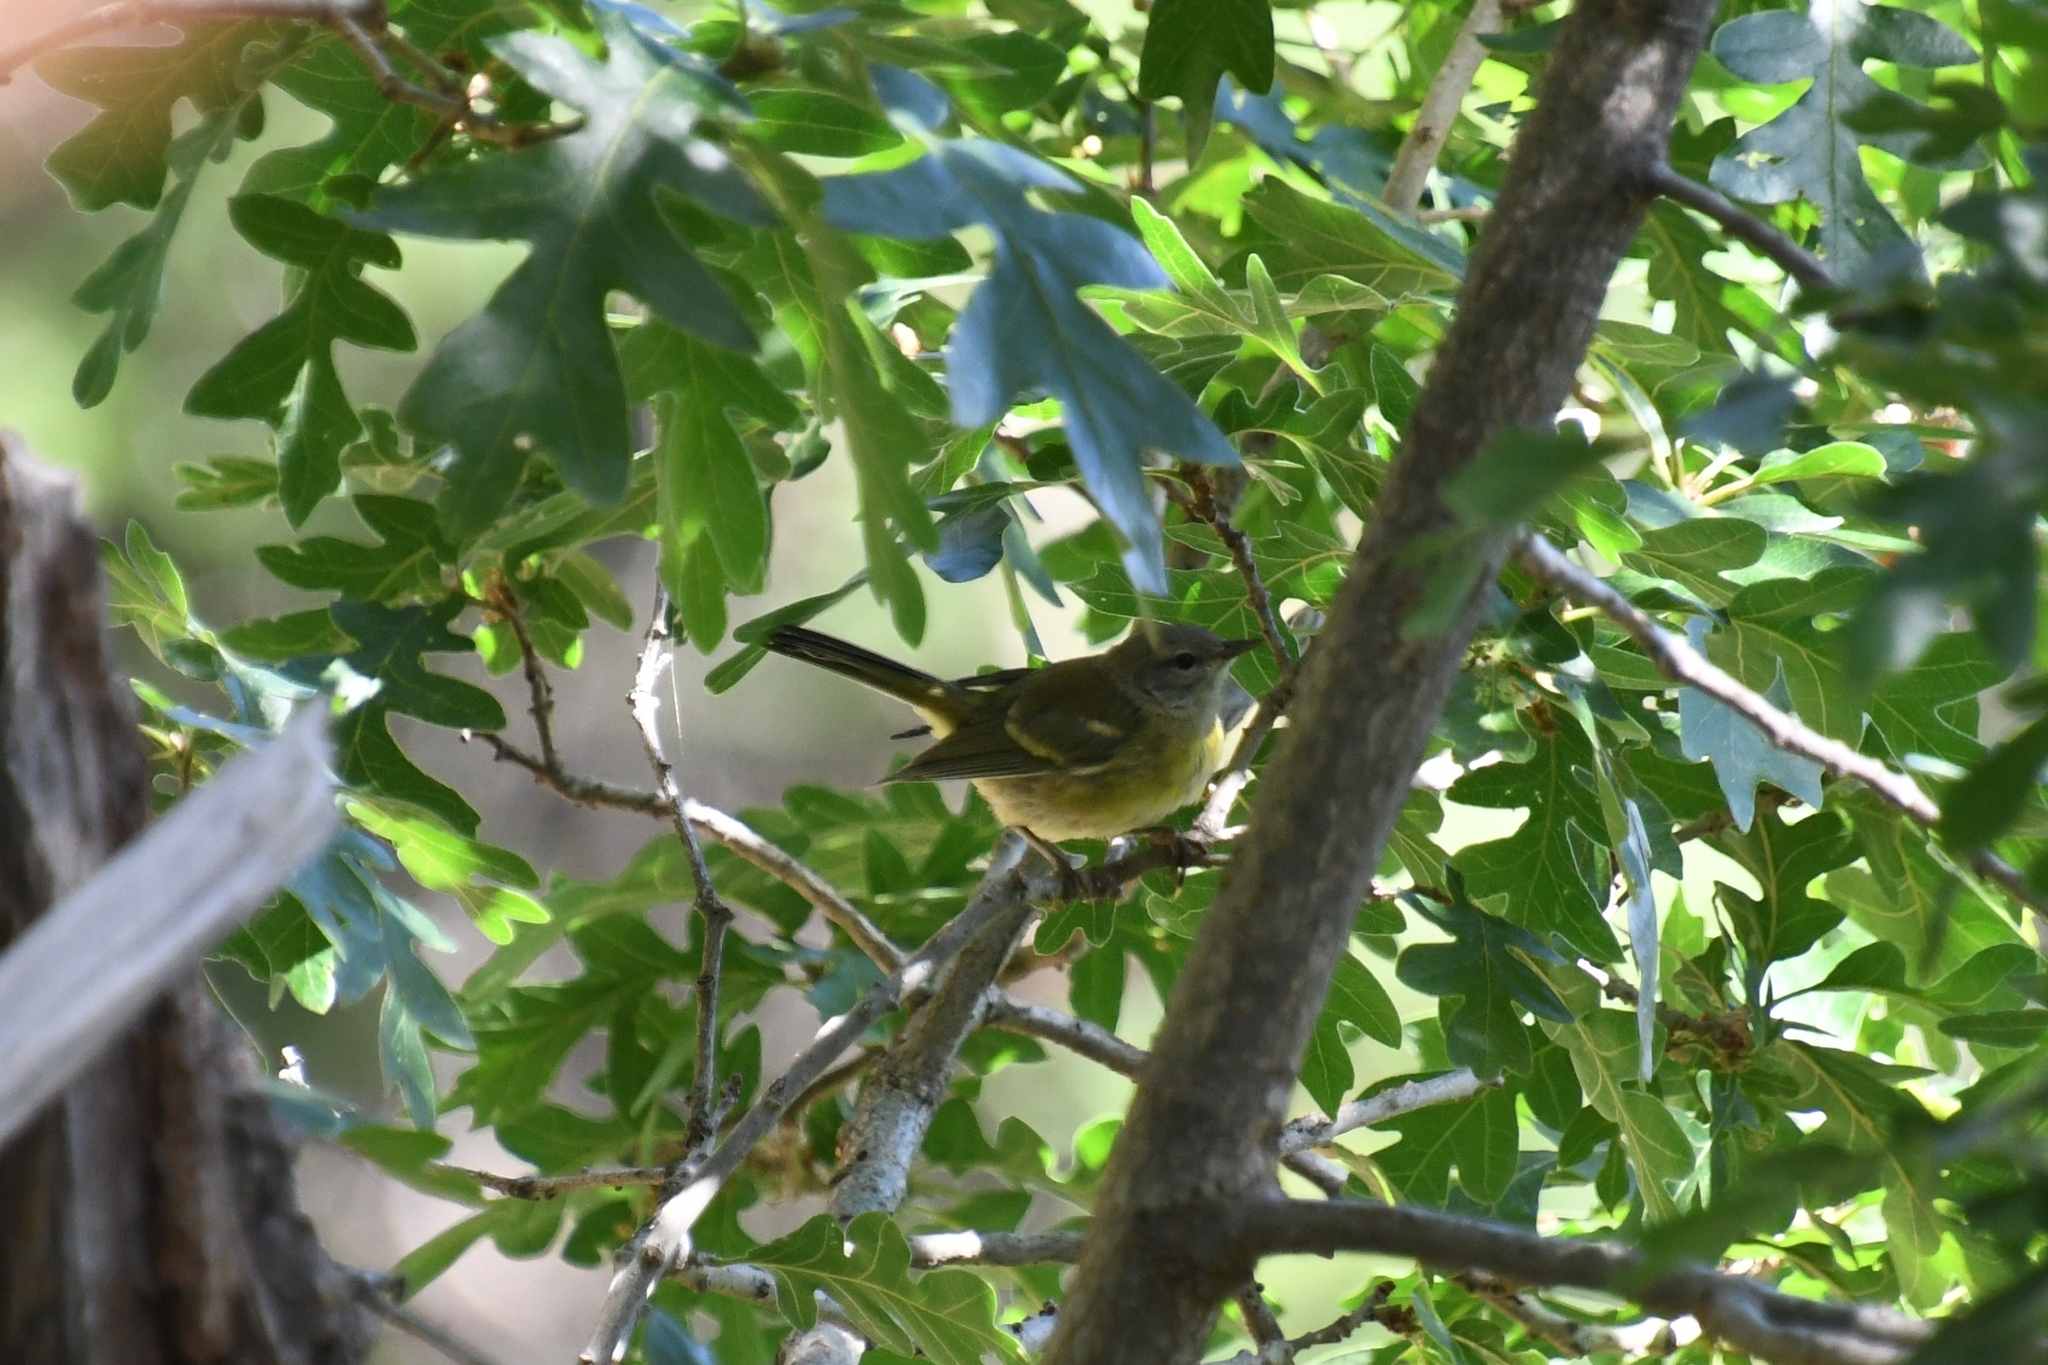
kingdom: Animalia
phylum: Chordata
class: Aves
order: Passeriformes
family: Parulidae
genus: Leiothlypis
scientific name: Leiothlypis celata
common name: Orange-crowned warbler
